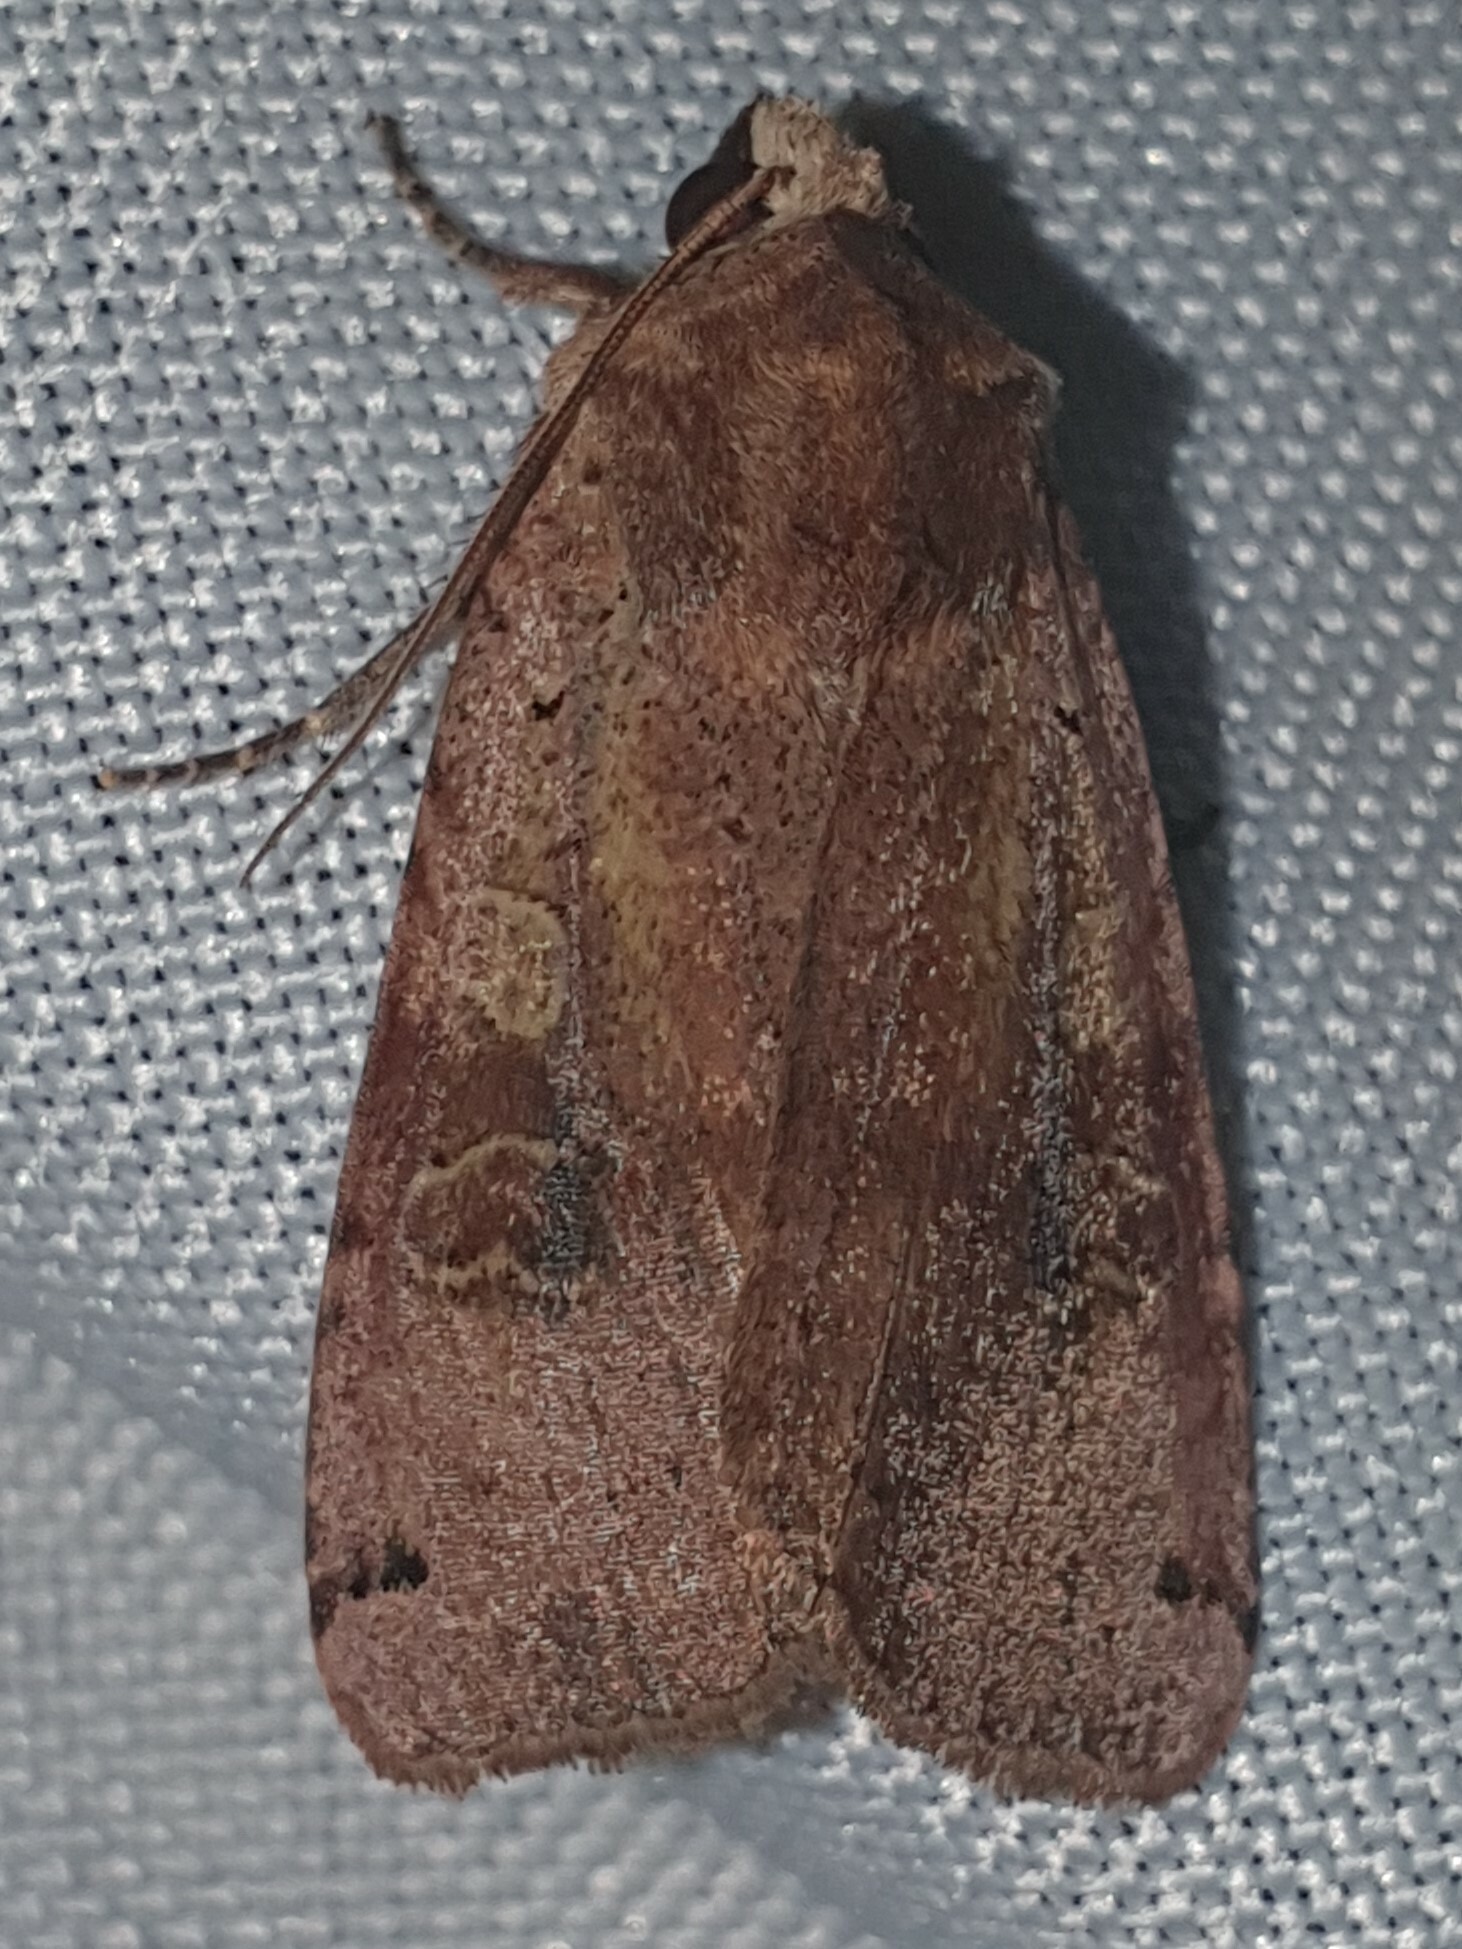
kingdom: Animalia
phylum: Arthropoda
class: Insecta
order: Lepidoptera
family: Noctuidae
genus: Xestia
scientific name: Xestia baja
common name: Dotted clay
